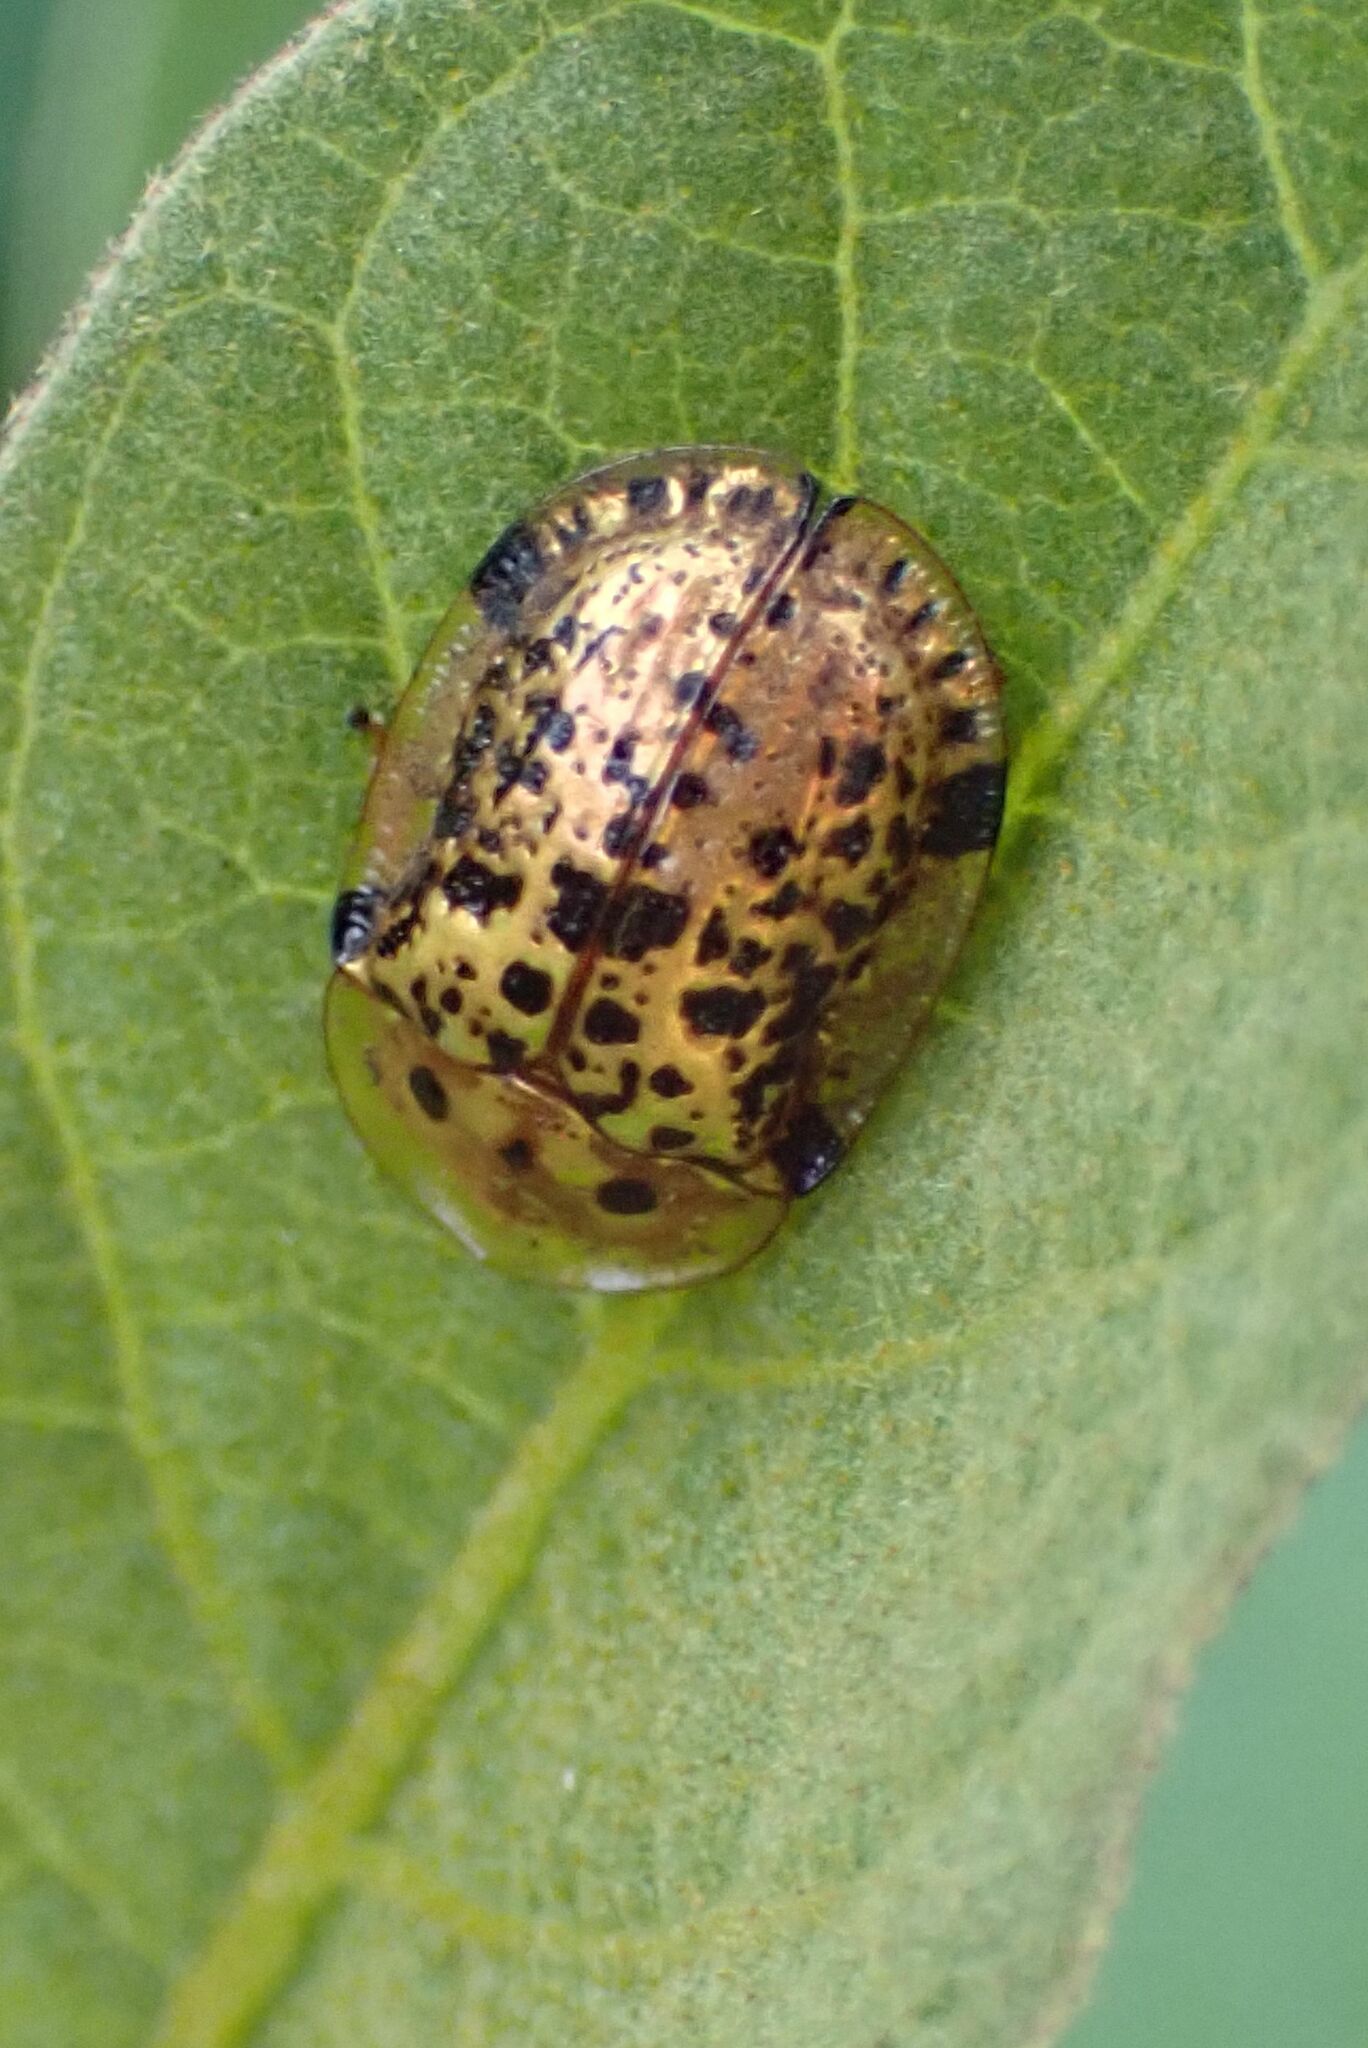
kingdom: Animalia
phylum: Arthropoda
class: Insecta
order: Coleoptera
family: Chrysomelidae
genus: Conchyloctenia
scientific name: Conchyloctenia tripuncticollis
